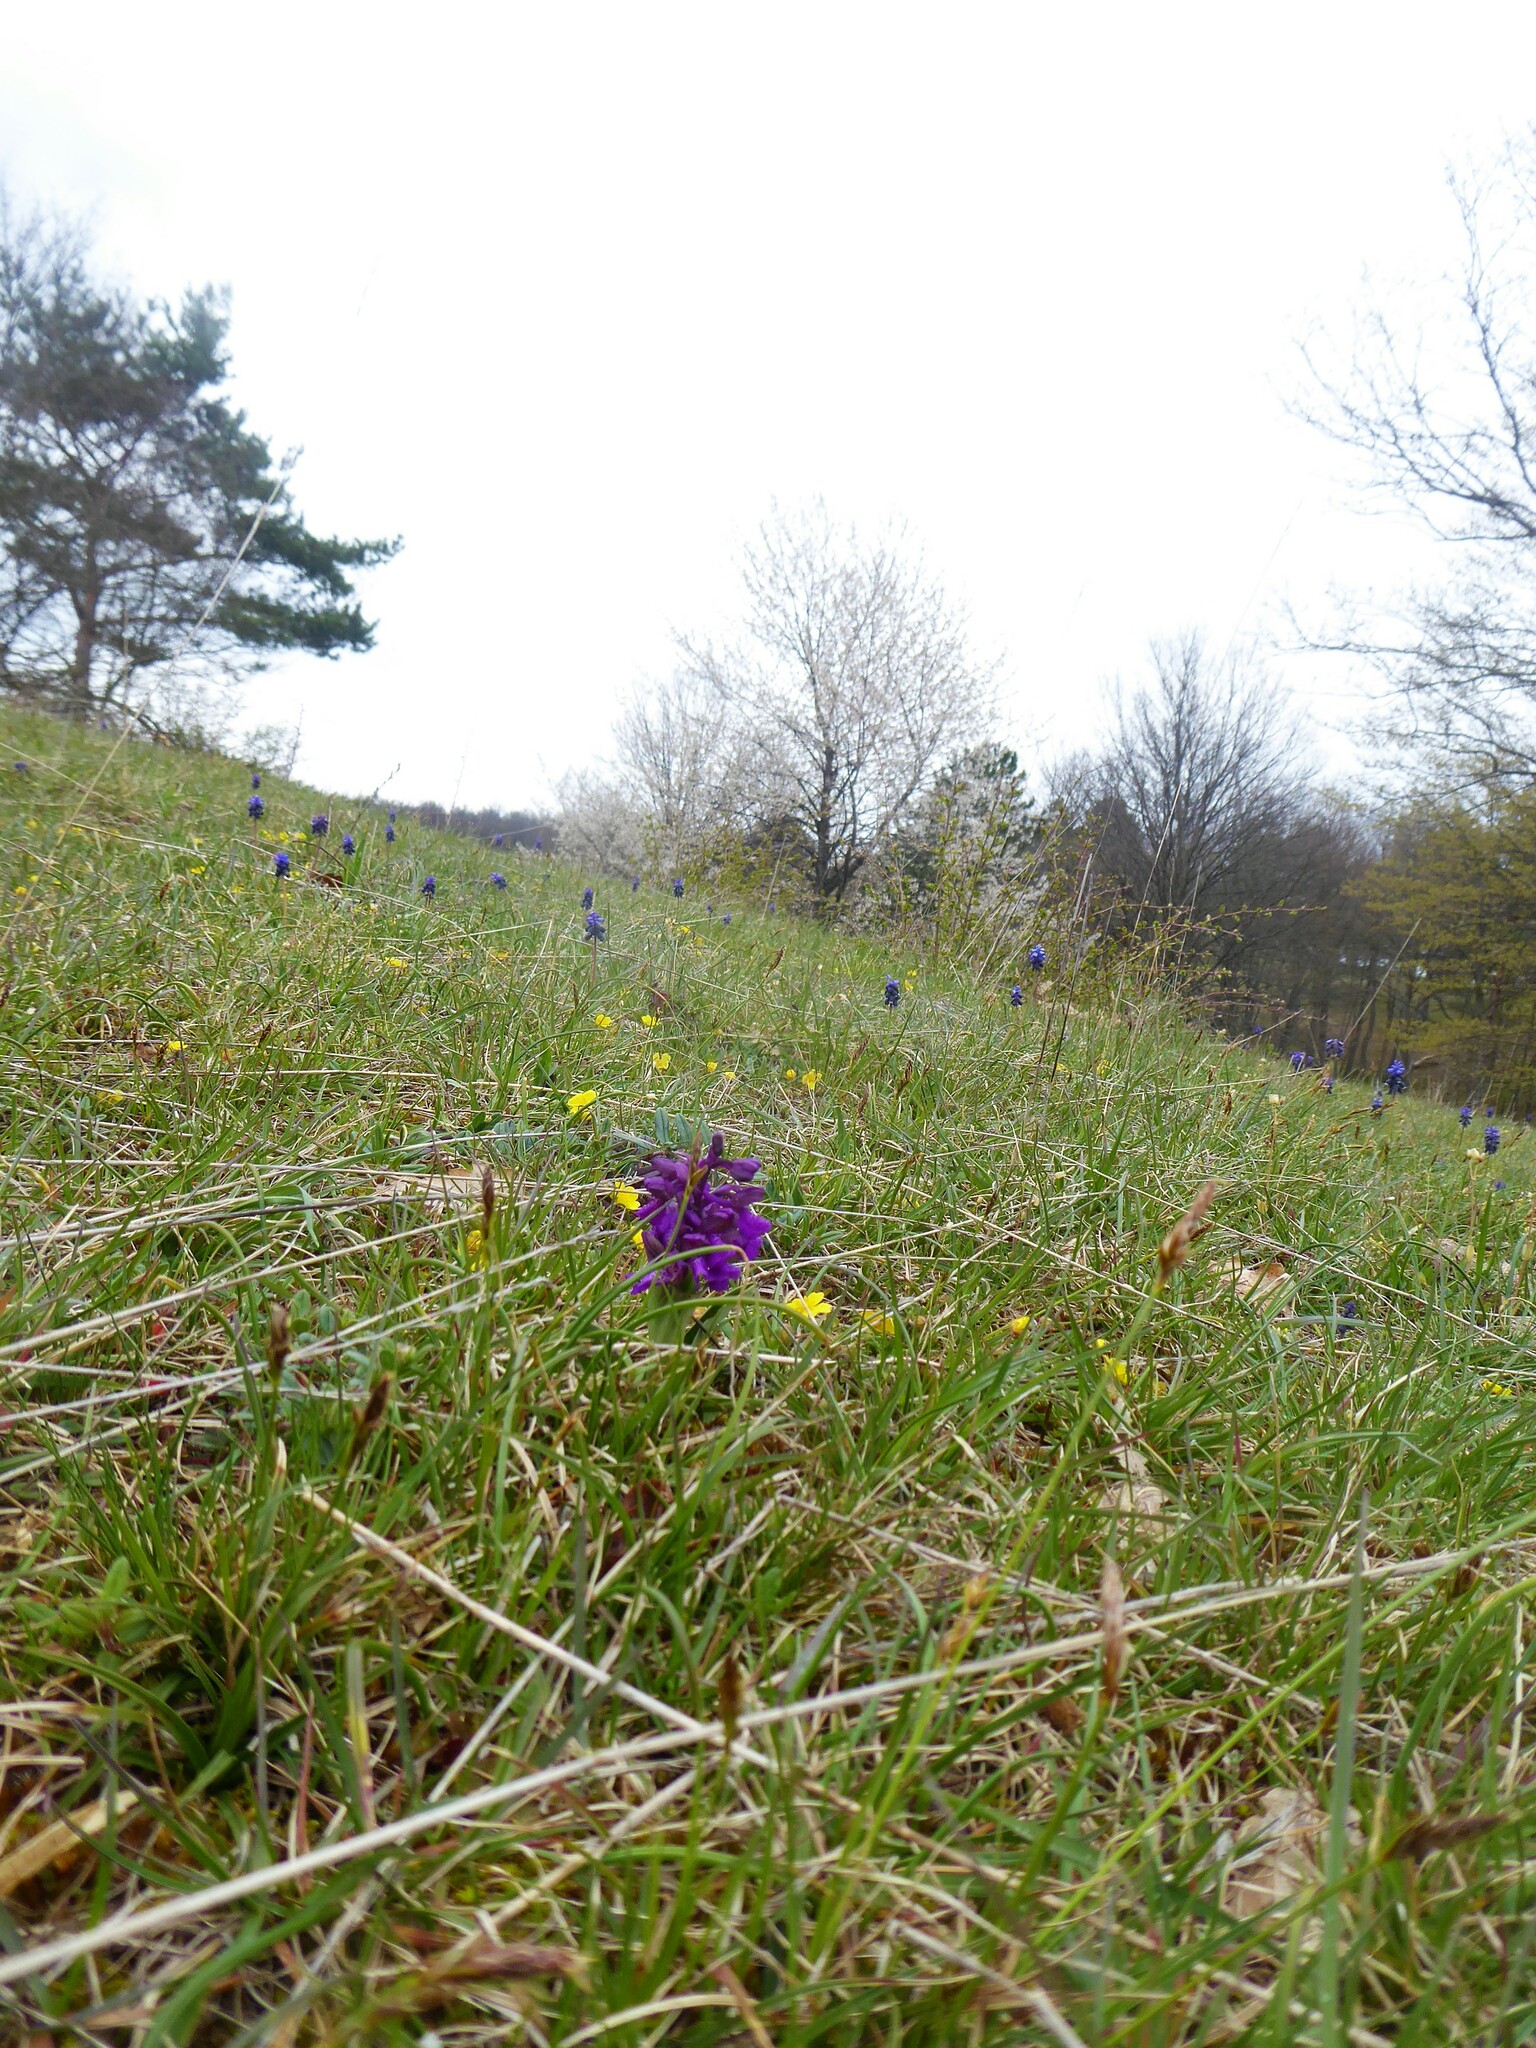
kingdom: Plantae
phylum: Tracheophyta
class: Liliopsida
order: Asparagales
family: Orchidaceae
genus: Anacamptis
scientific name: Anacamptis morio
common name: Green-winged orchid
